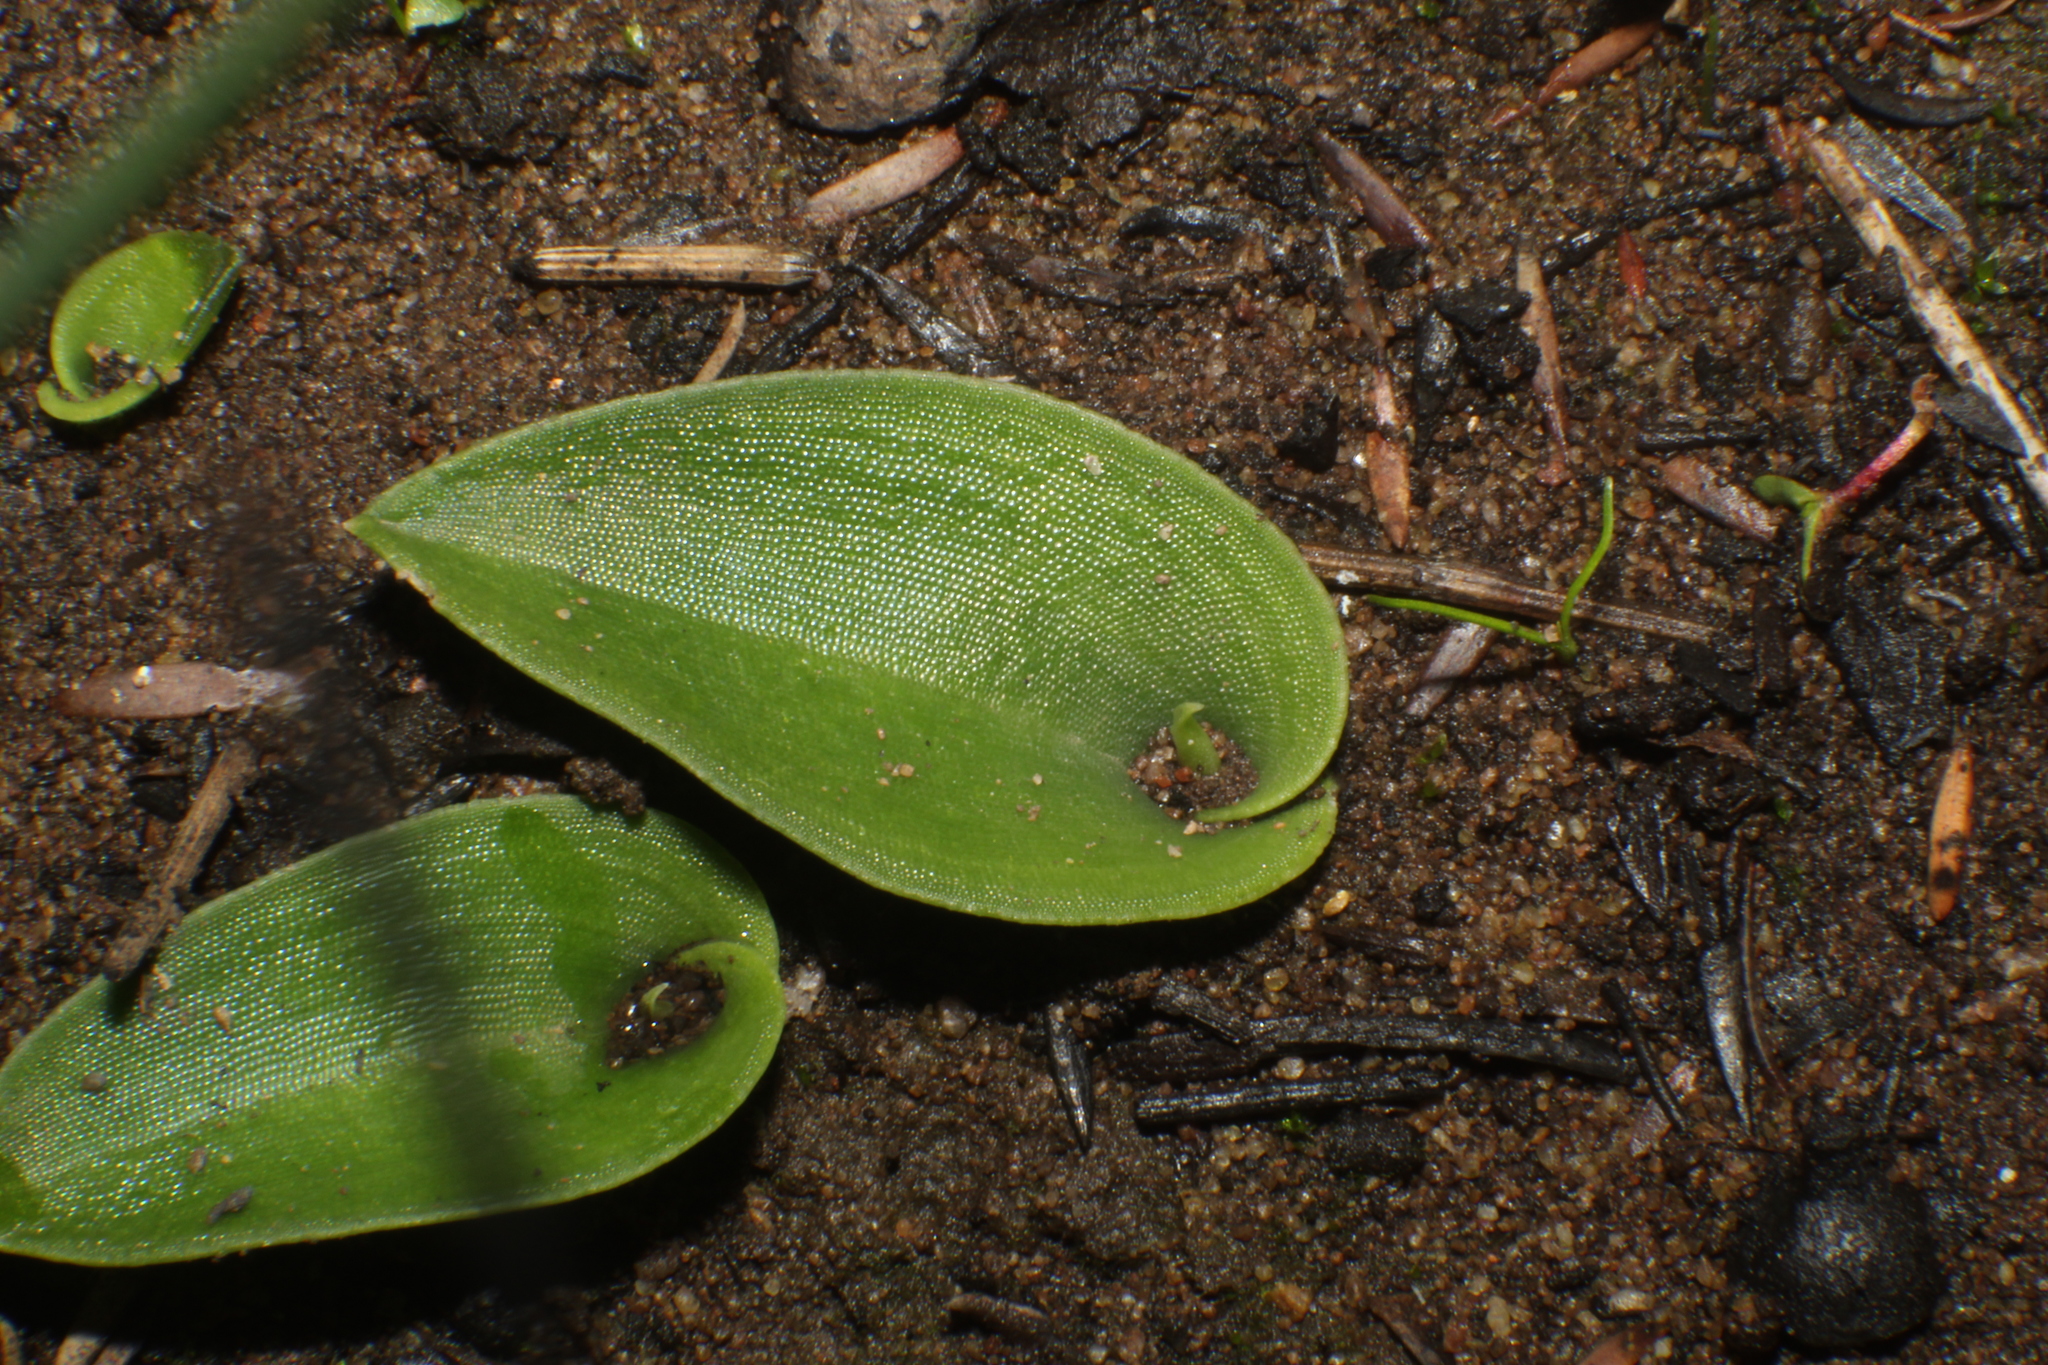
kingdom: Plantae
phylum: Tracheophyta
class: Liliopsida
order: Asparagales
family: Orchidaceae
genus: Leptoceras
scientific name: Leptoceras menziesii
